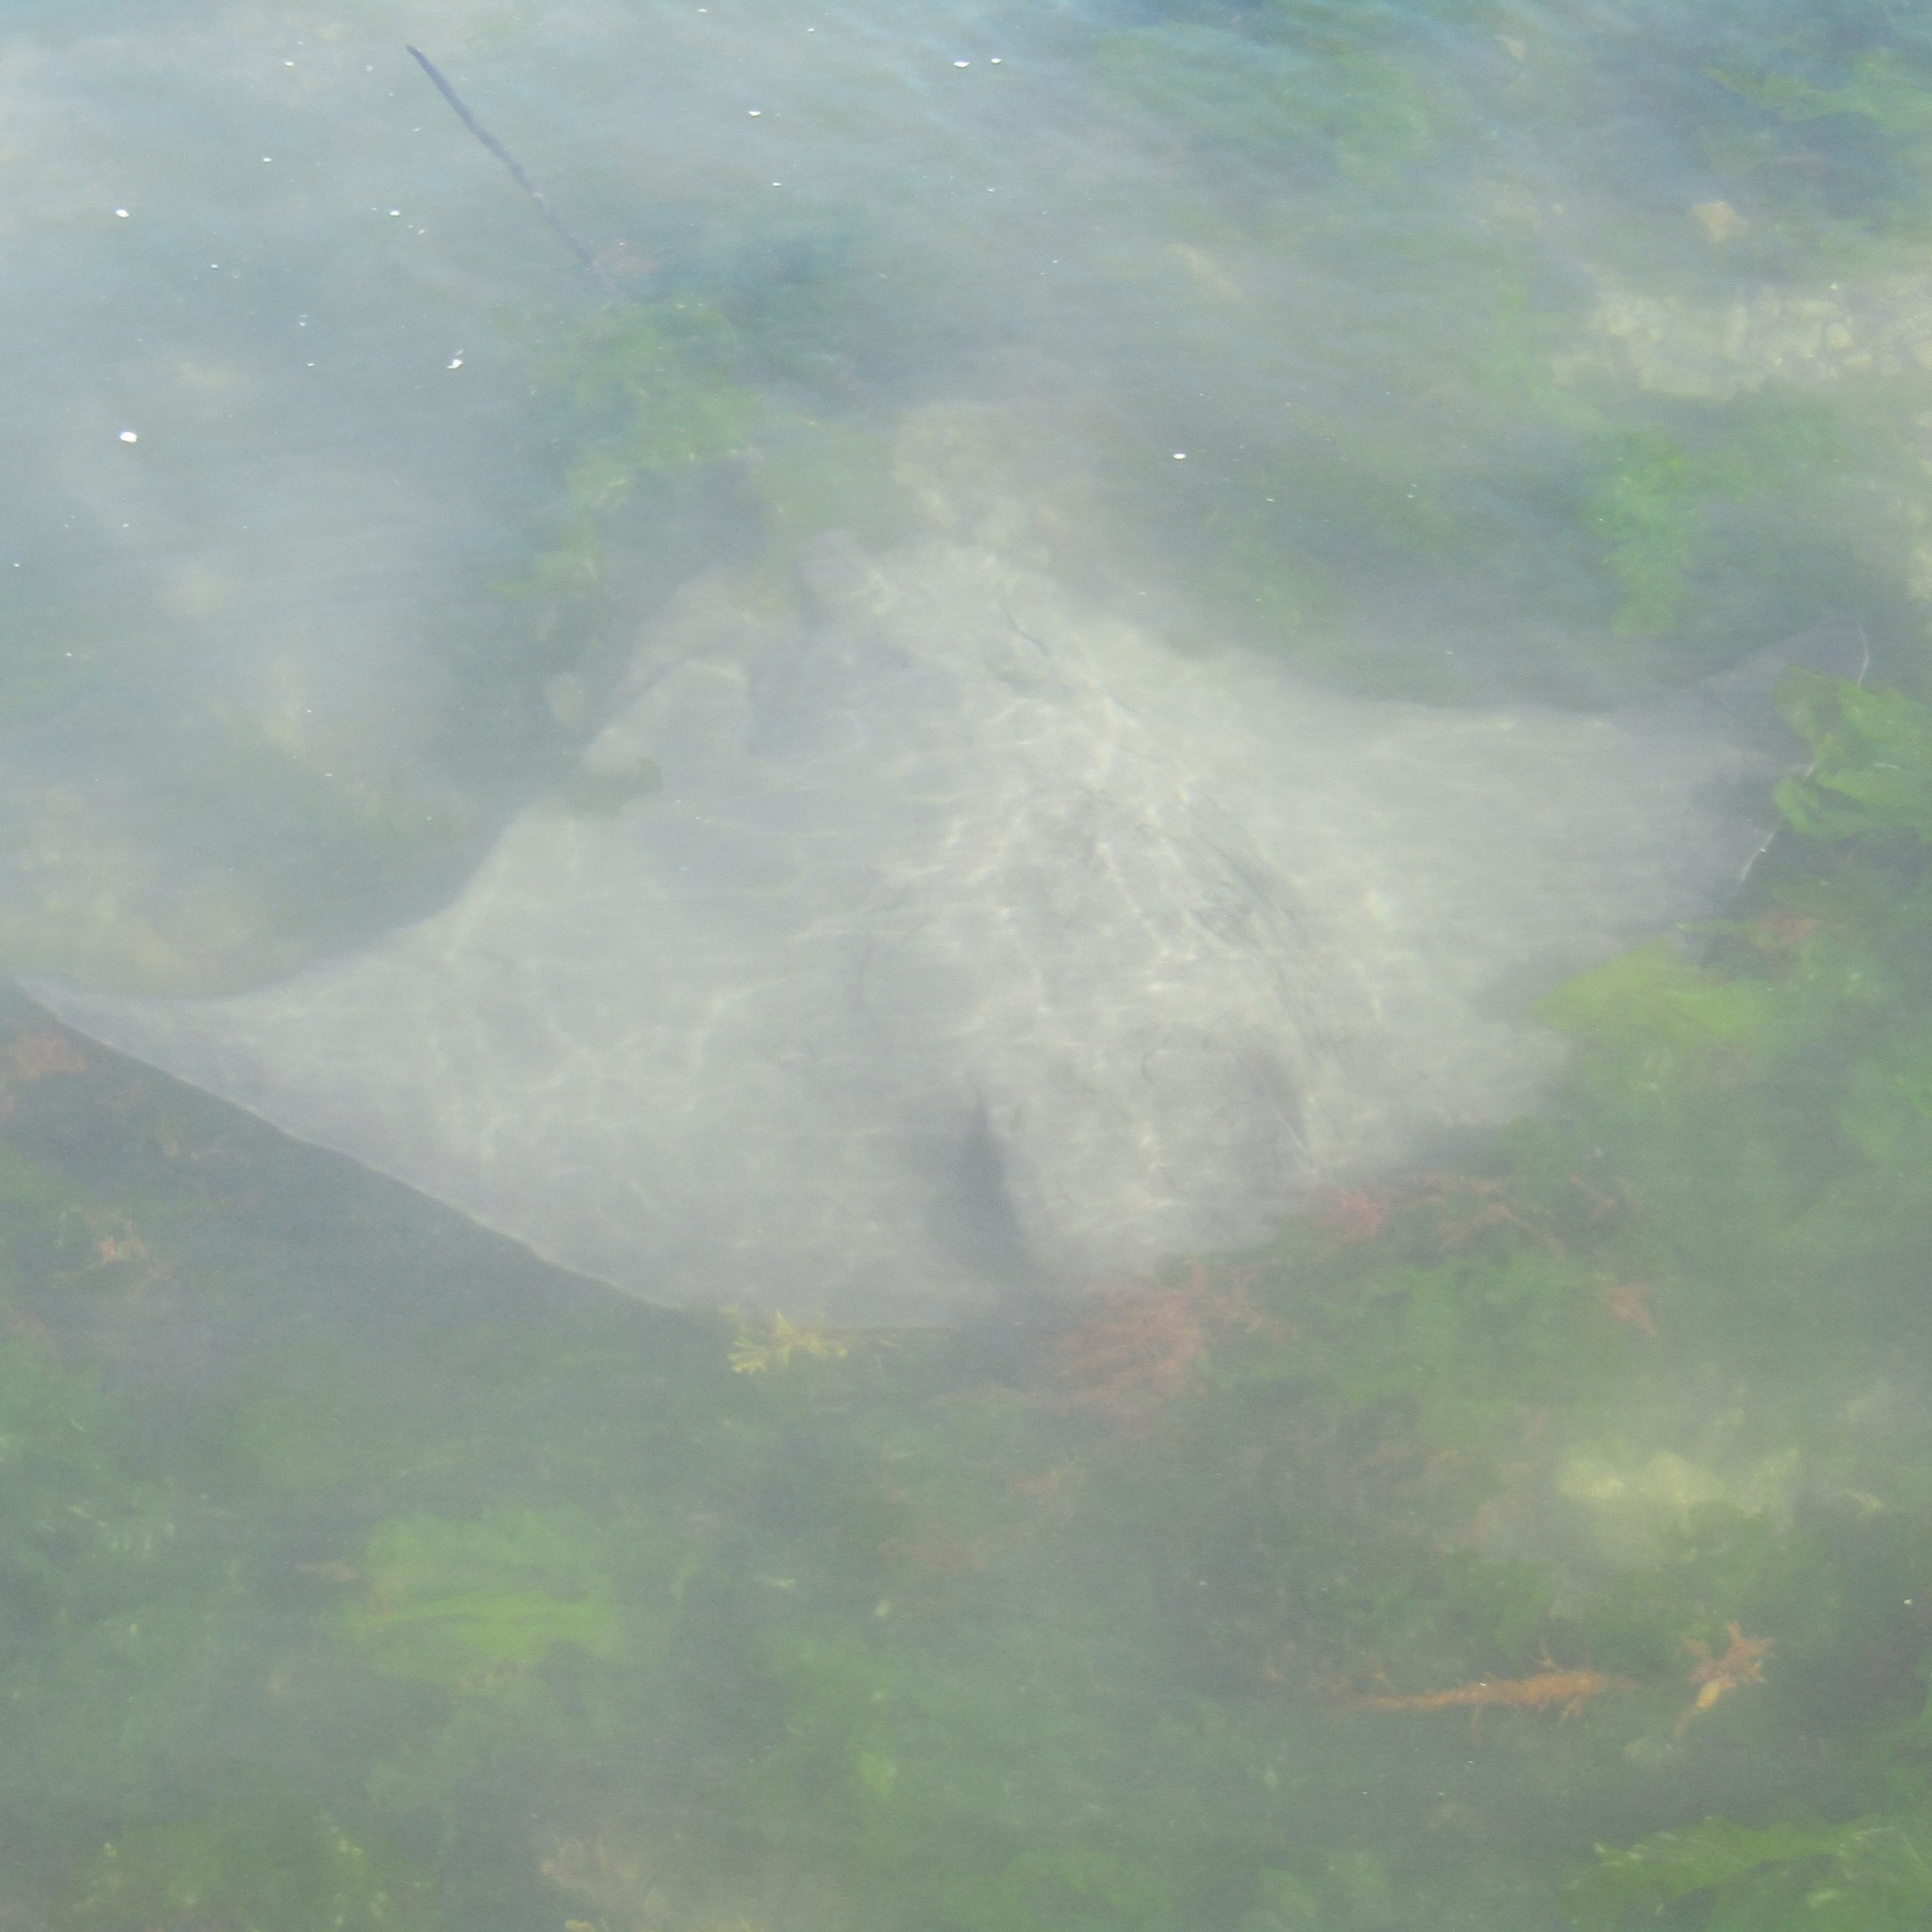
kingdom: Animalia
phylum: Chordata
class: Elasmobranchii
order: Myliobatiformes
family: Myliobatidae
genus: Myliobatis
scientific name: Myliobatis tenuicaudatus
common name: Eagle ray
